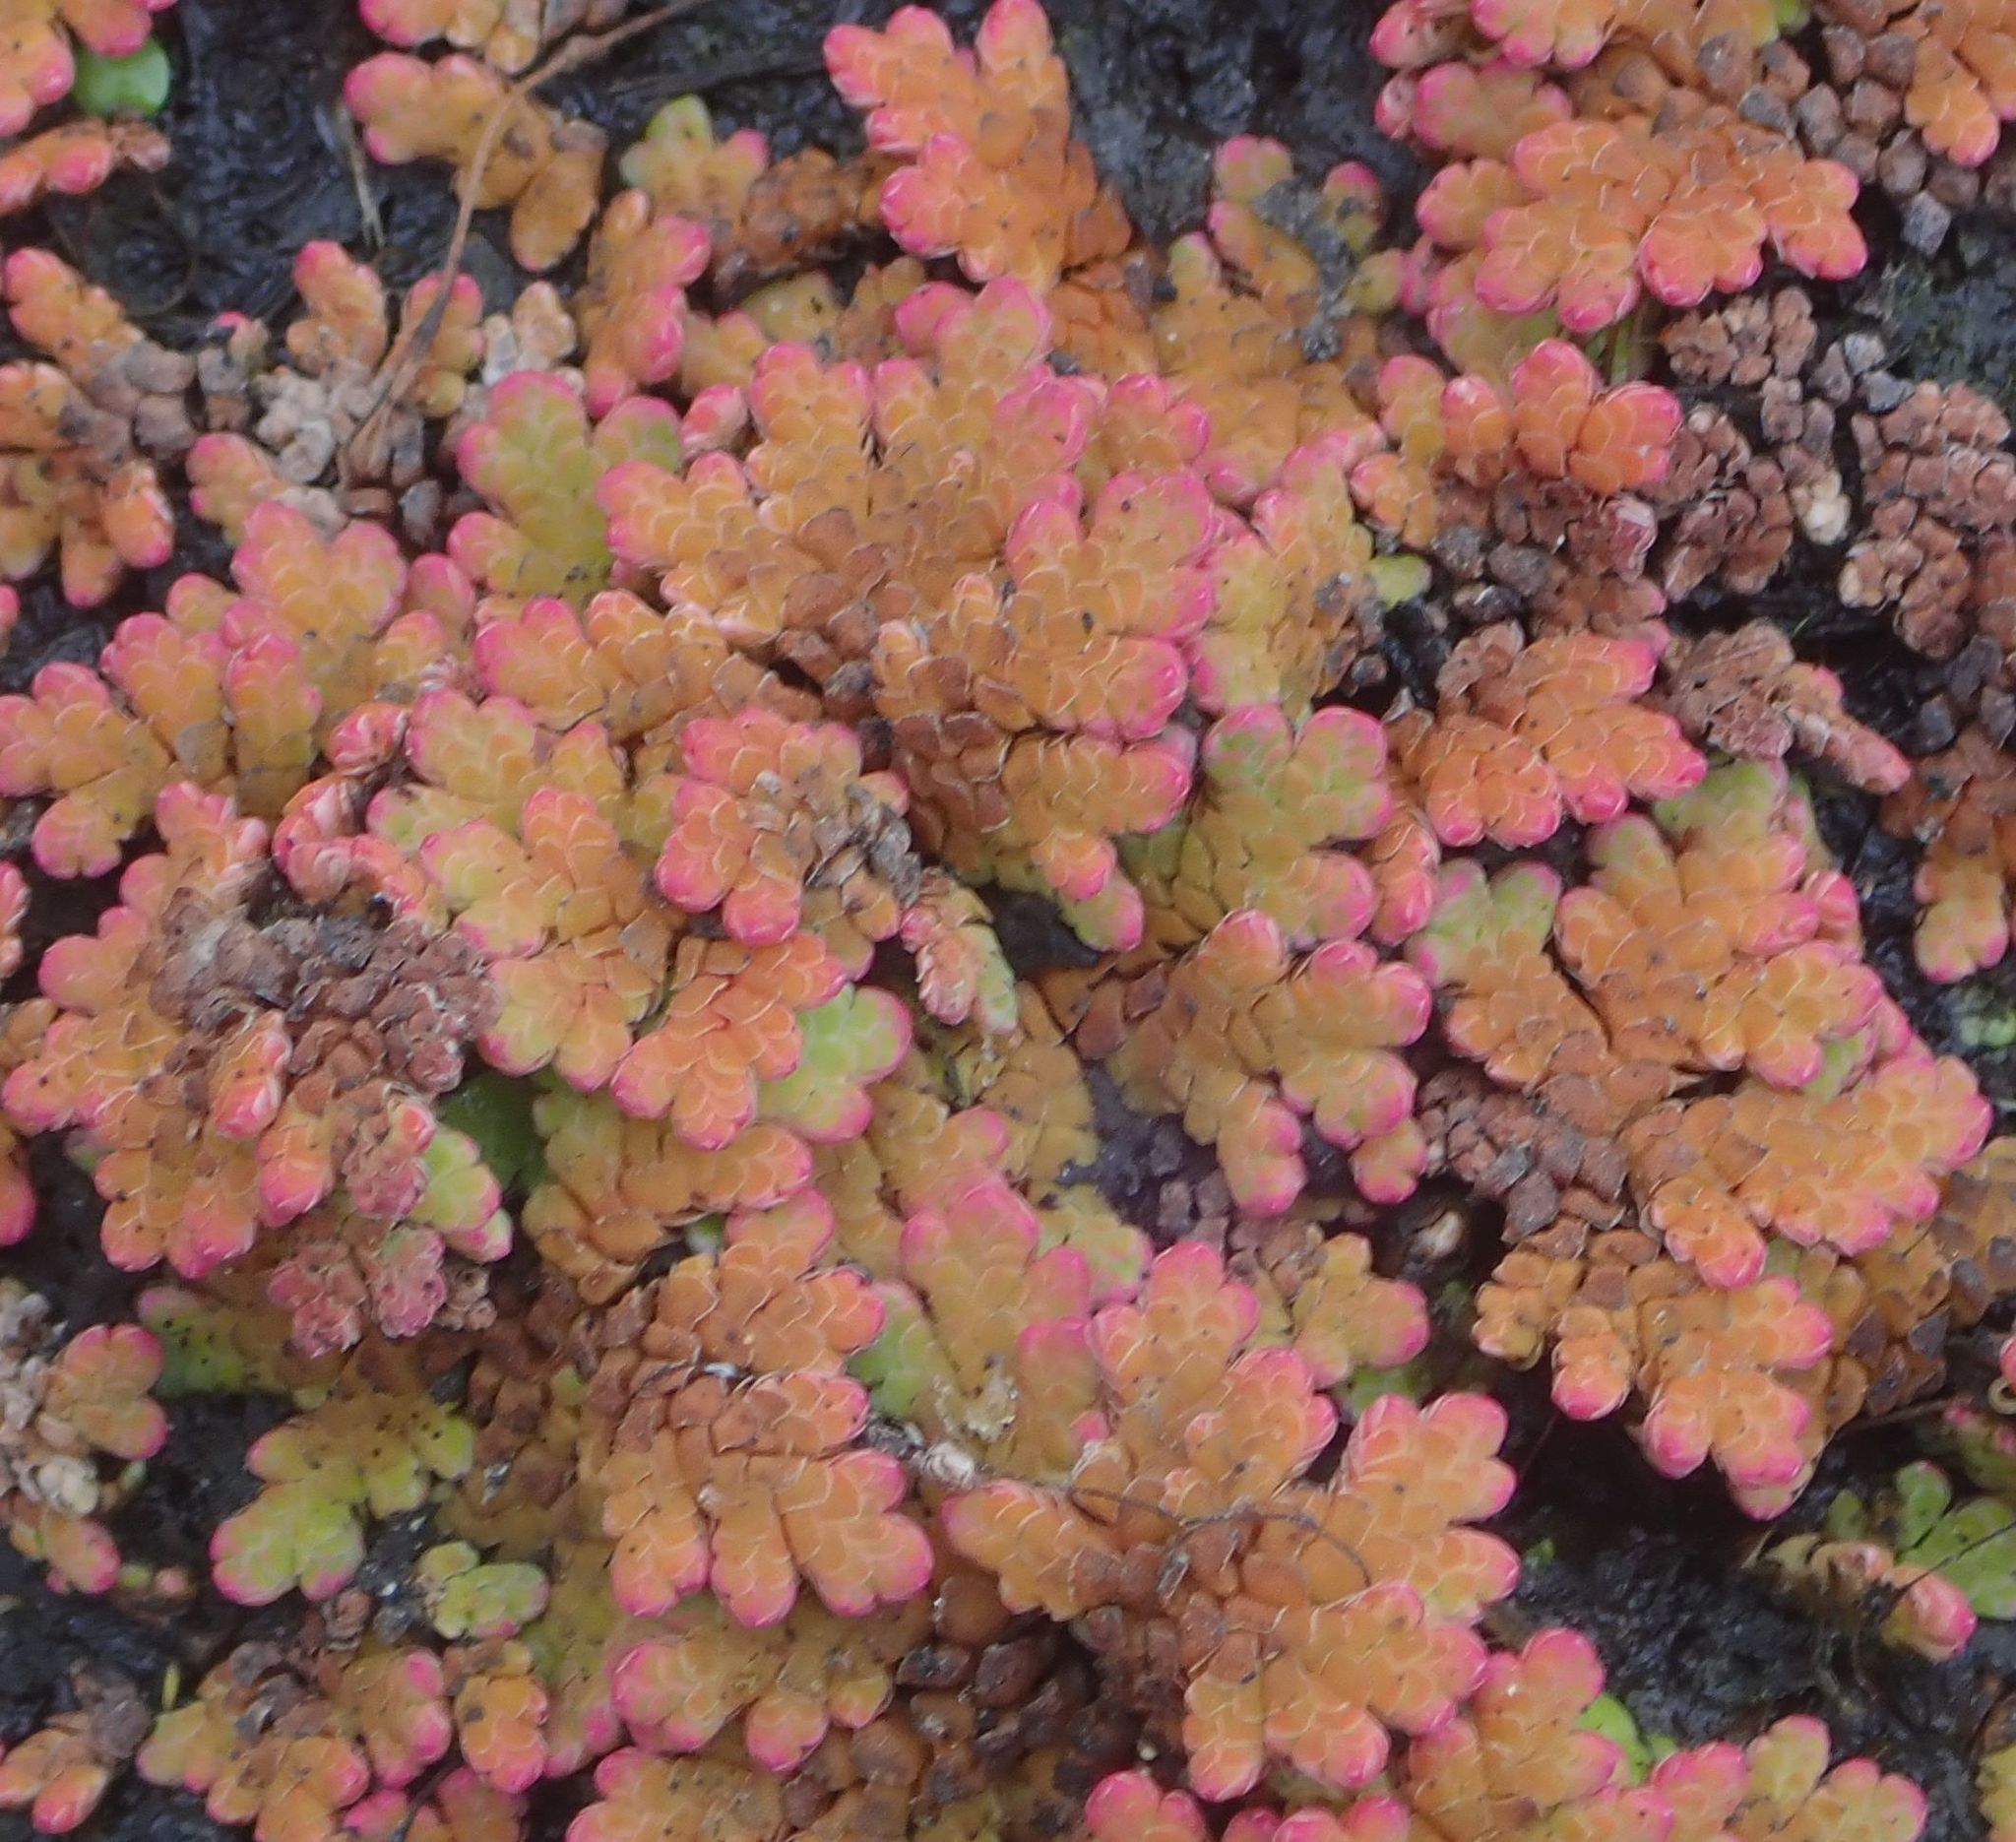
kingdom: Plantae
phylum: Tracheophyta
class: Polypodiopsida
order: Salviniales
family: Salviniaceae
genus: Azolla
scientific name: Azolla rubra
